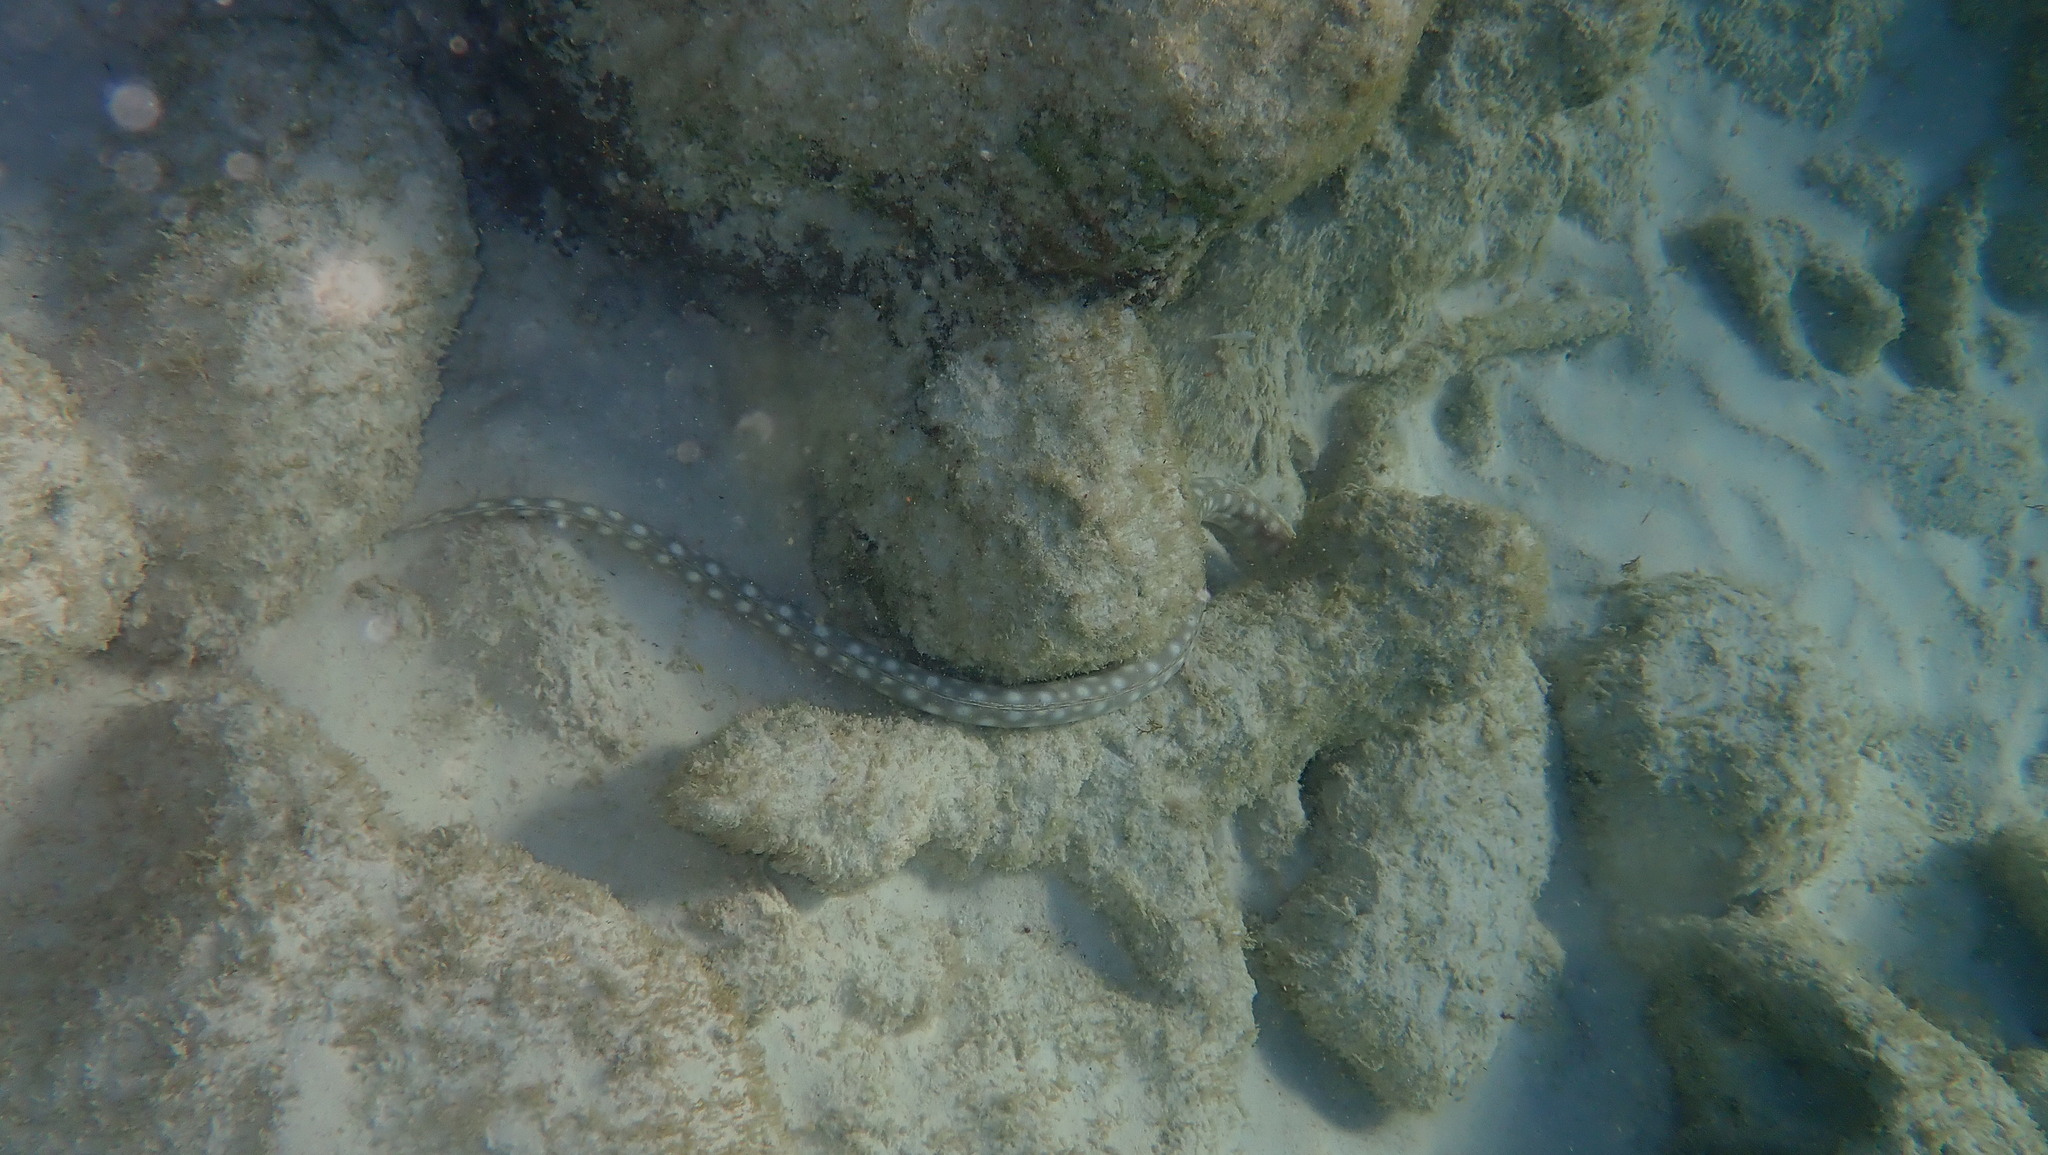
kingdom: Animalia
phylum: Chordata
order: Anguilliformes
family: Ophichthidae
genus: Myrichthys
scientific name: Myrichthys breviceps
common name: Sharptail eel
